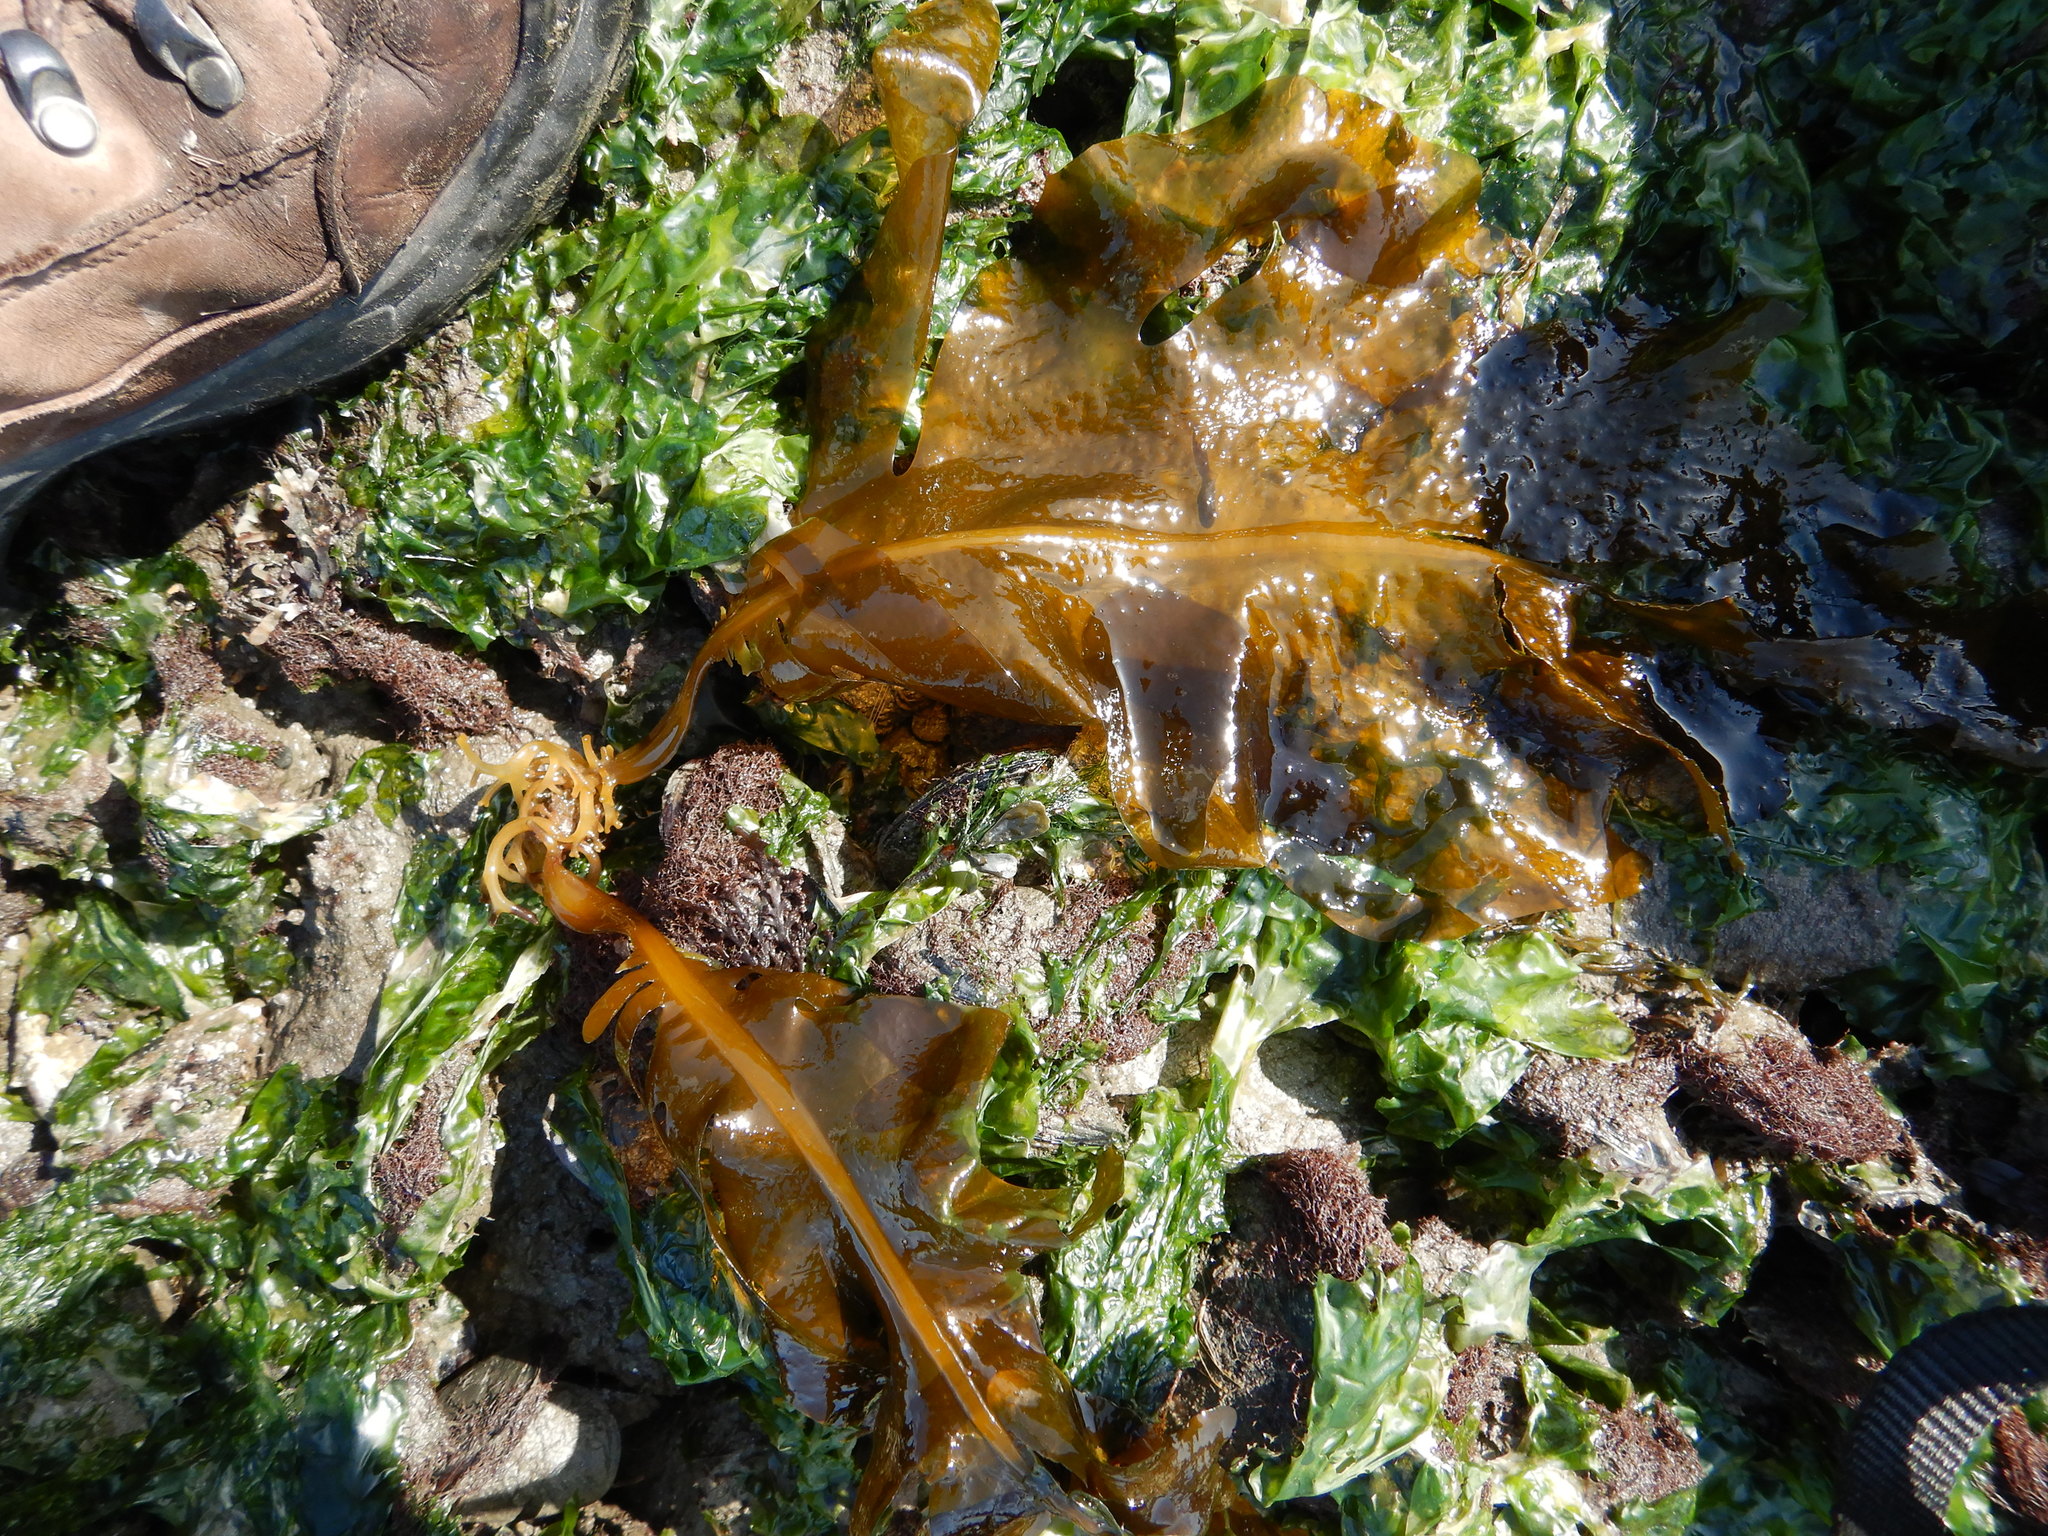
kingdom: Chromista
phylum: Ochrophyta
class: Phaeophyceae
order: Laminariales
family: Alariaceae
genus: Undaria
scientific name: Undaria pinnatifida
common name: Asian kelp
